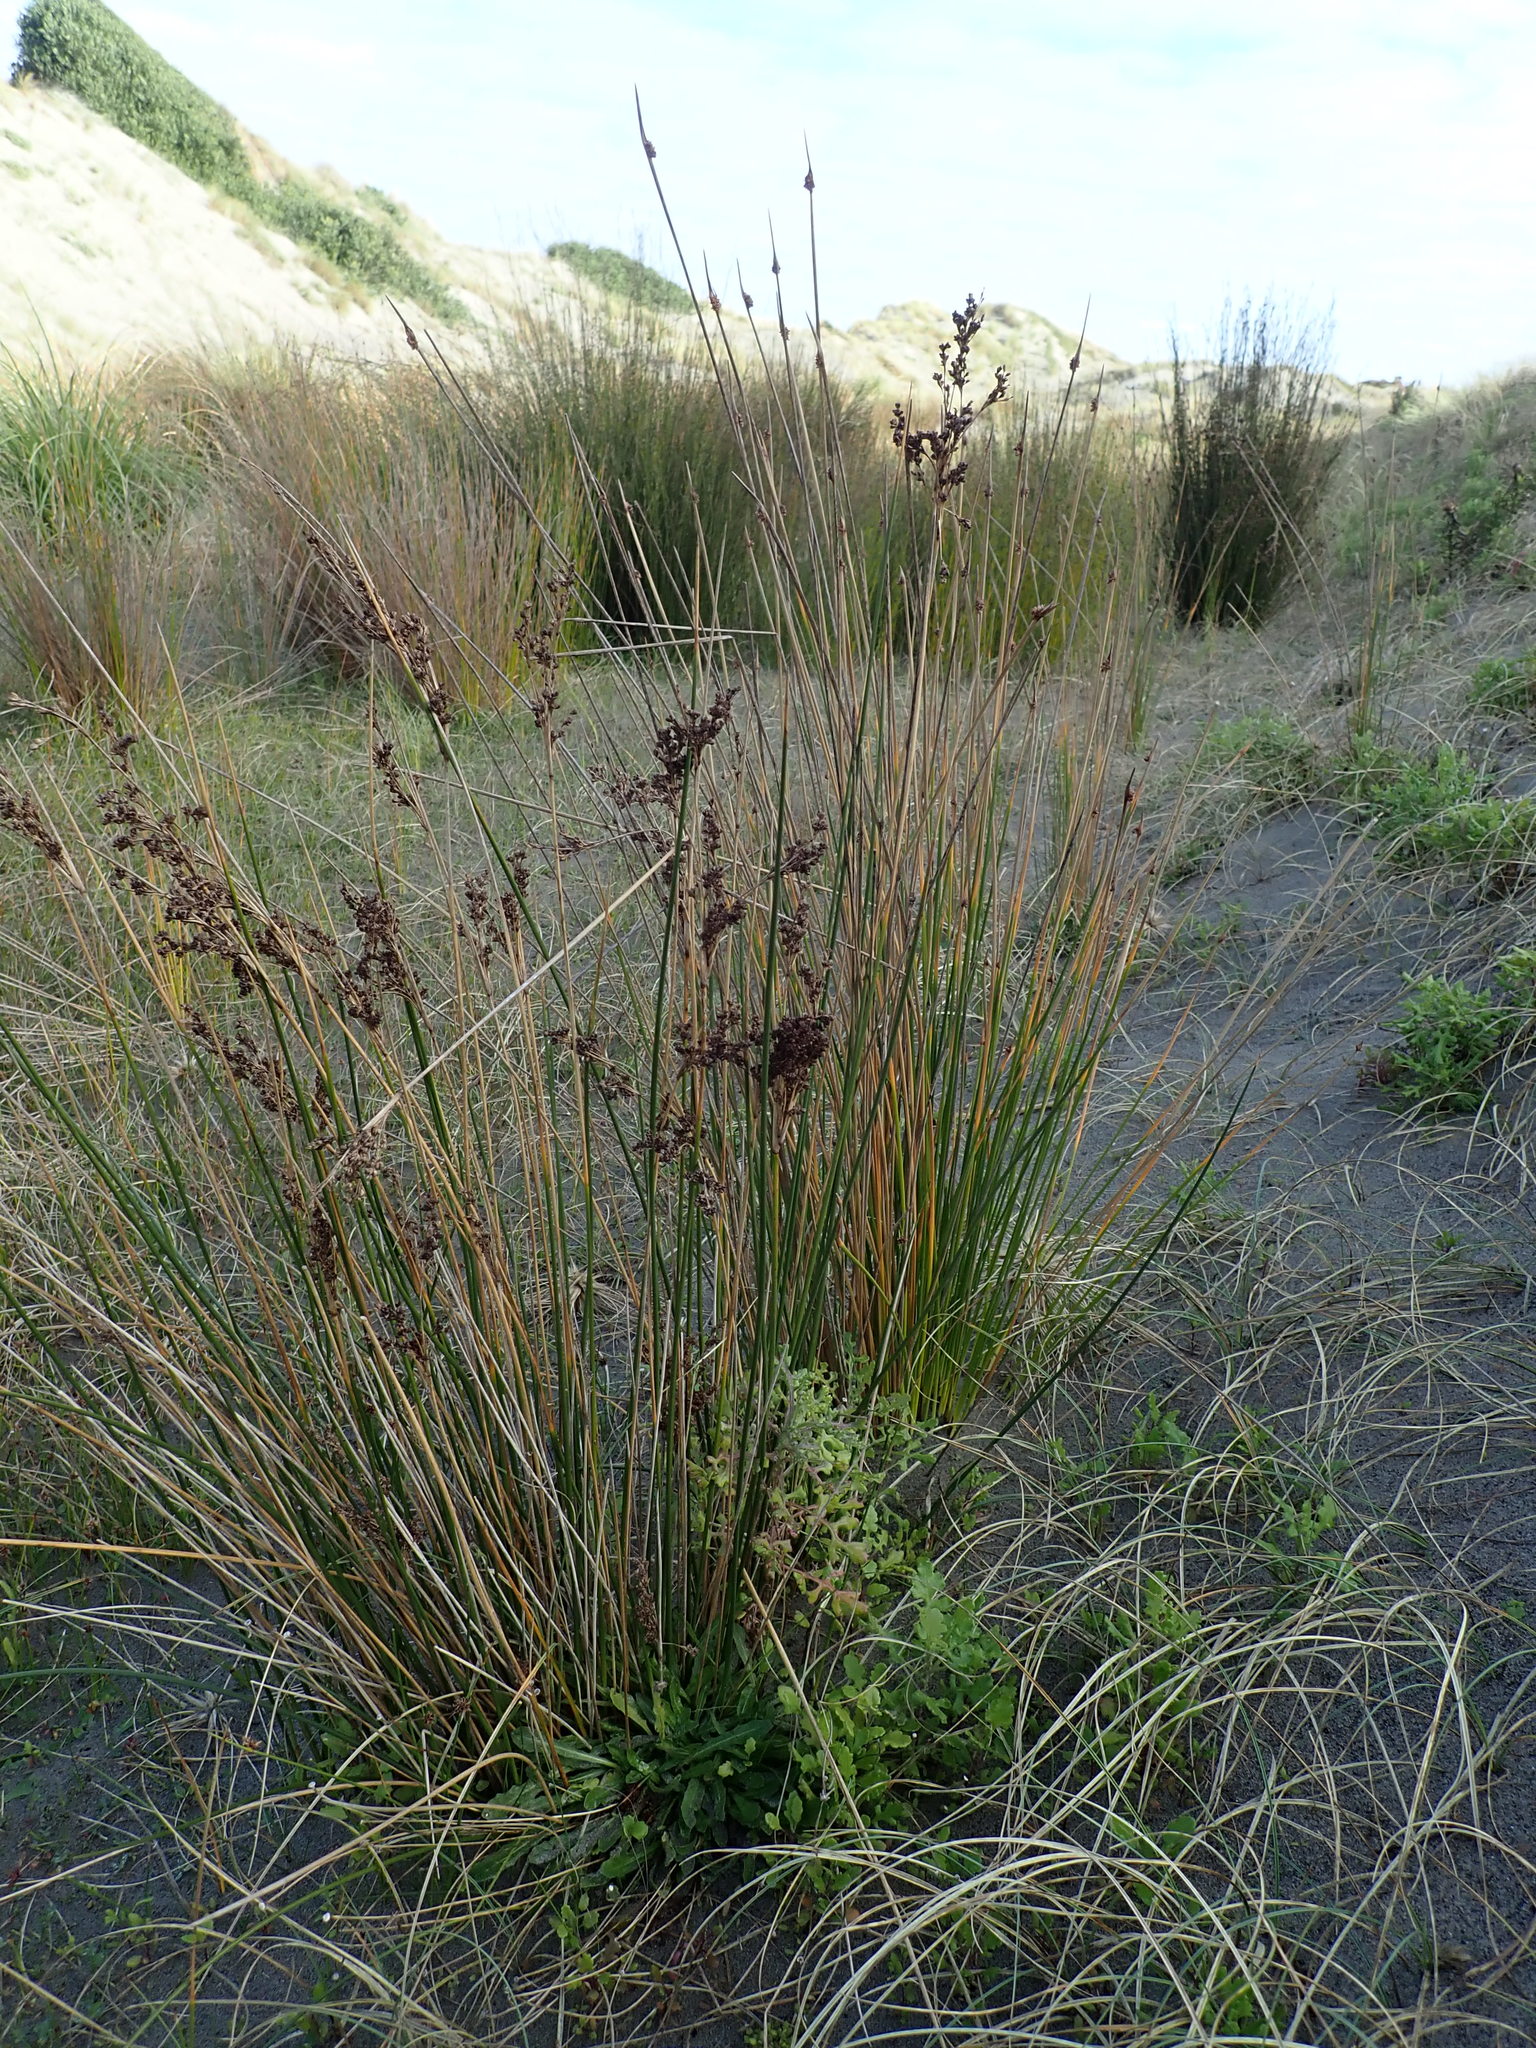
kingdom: Plantae
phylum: Tracheophyta
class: Liliopsida
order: Poales
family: Juncaceae
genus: Juncus
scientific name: Juncus kraussii
